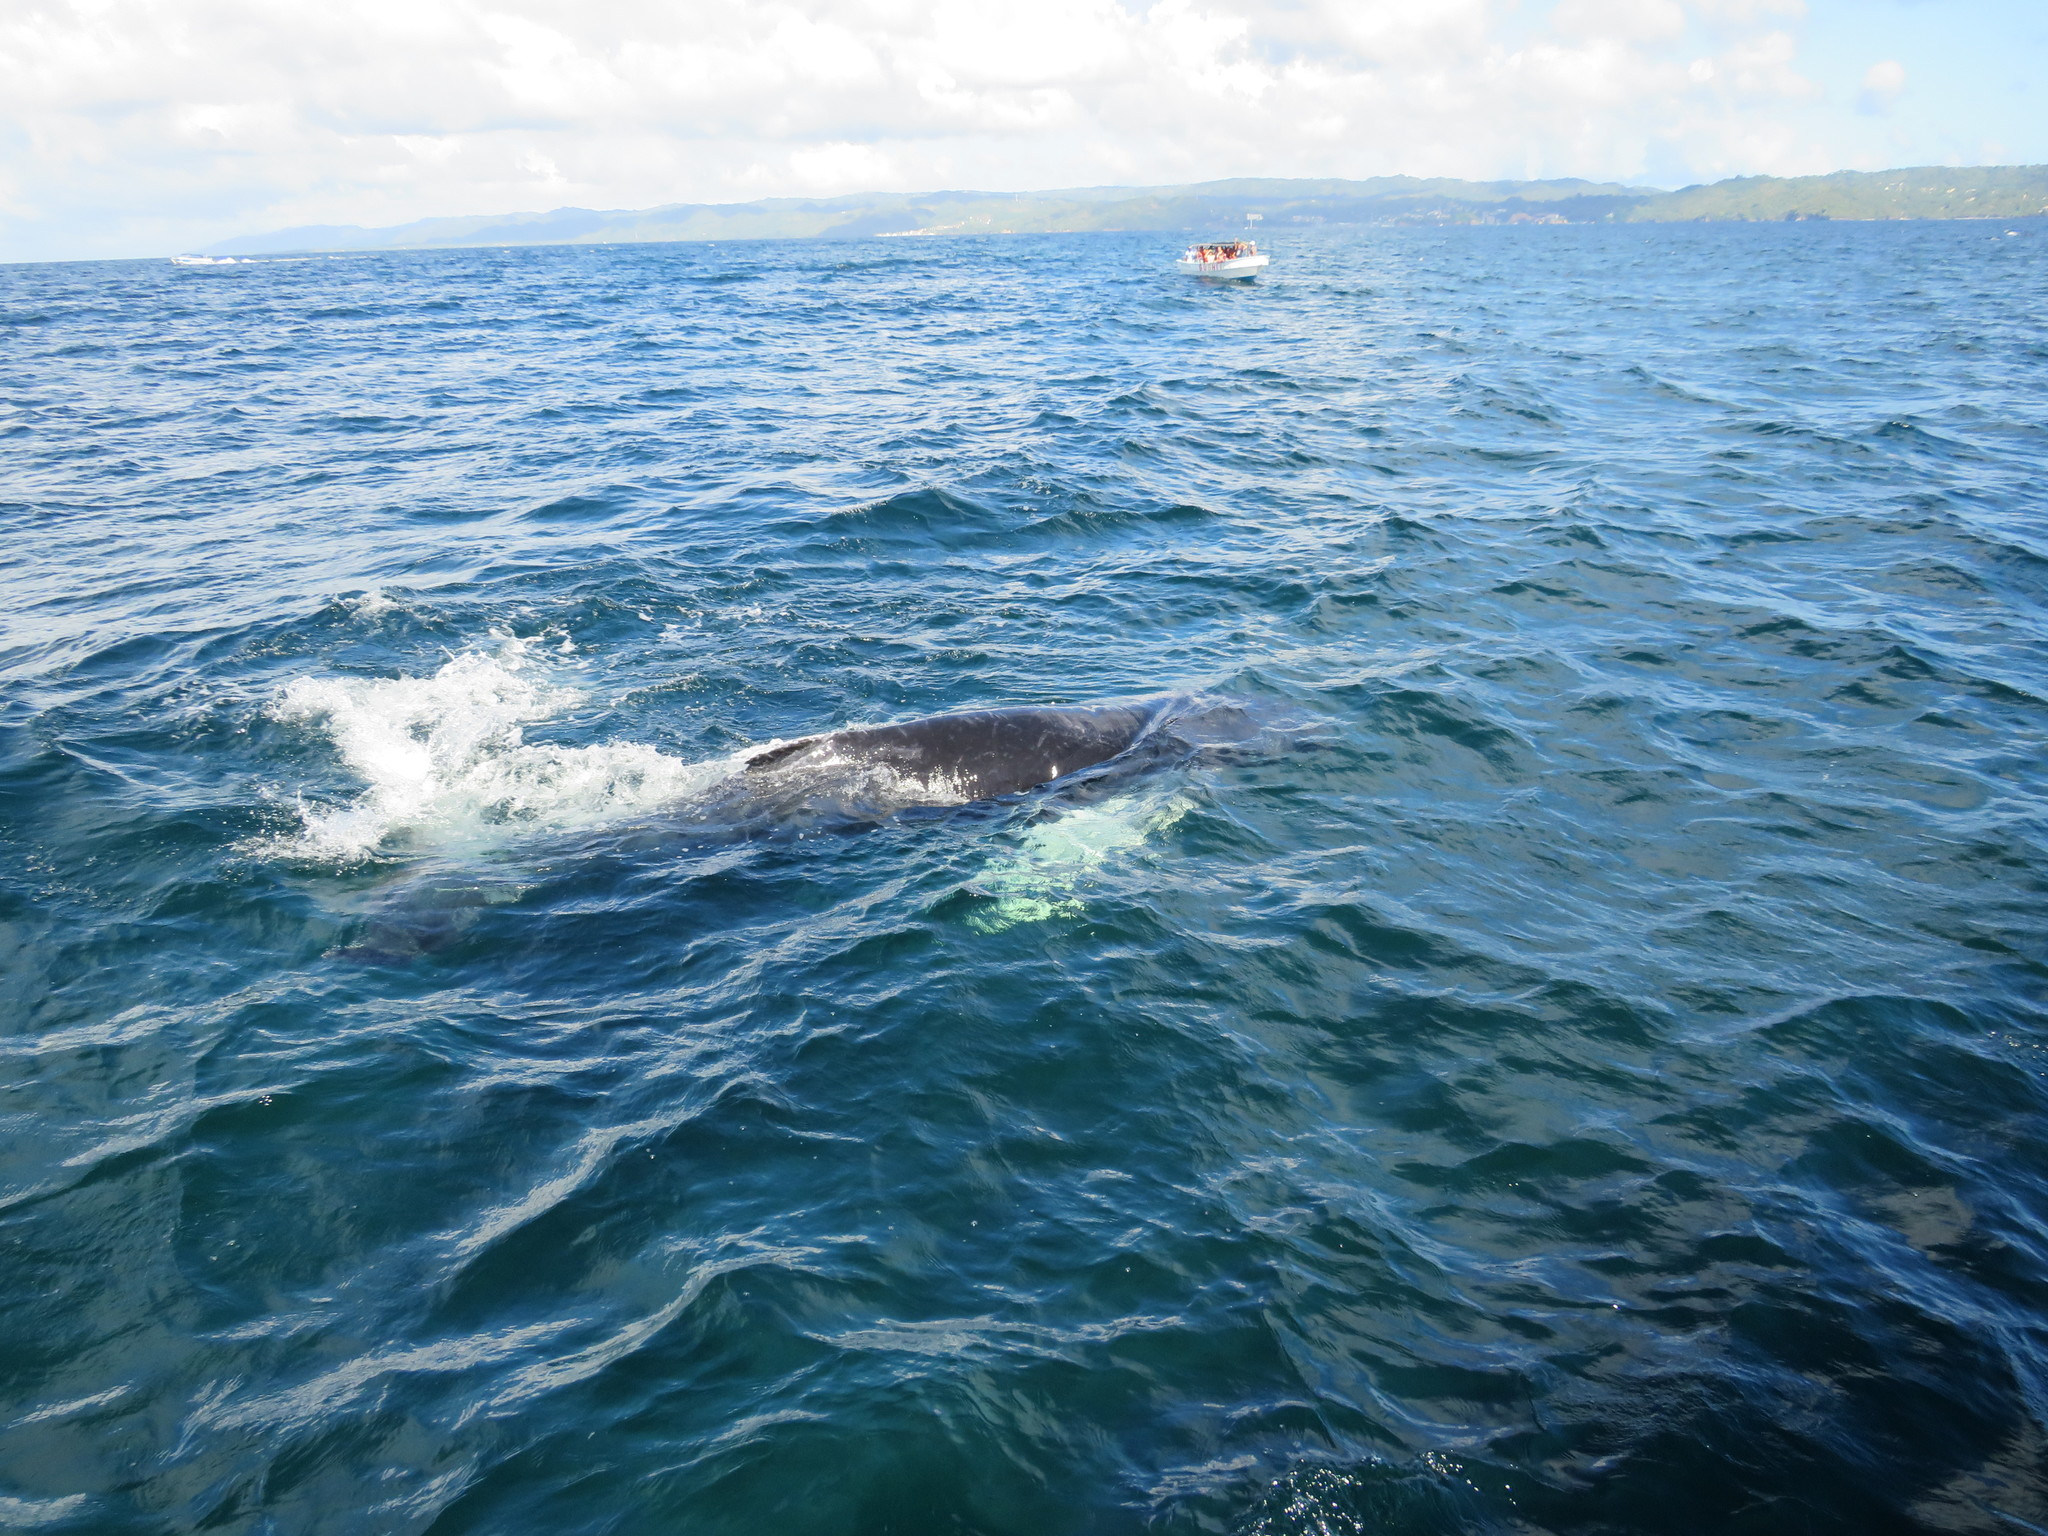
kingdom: Animalia
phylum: Chordata
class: Mammalia
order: Cetacea
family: Balaenopteridae
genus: Megaptera
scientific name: Megaptera novaeangliae
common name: Humpback whale
